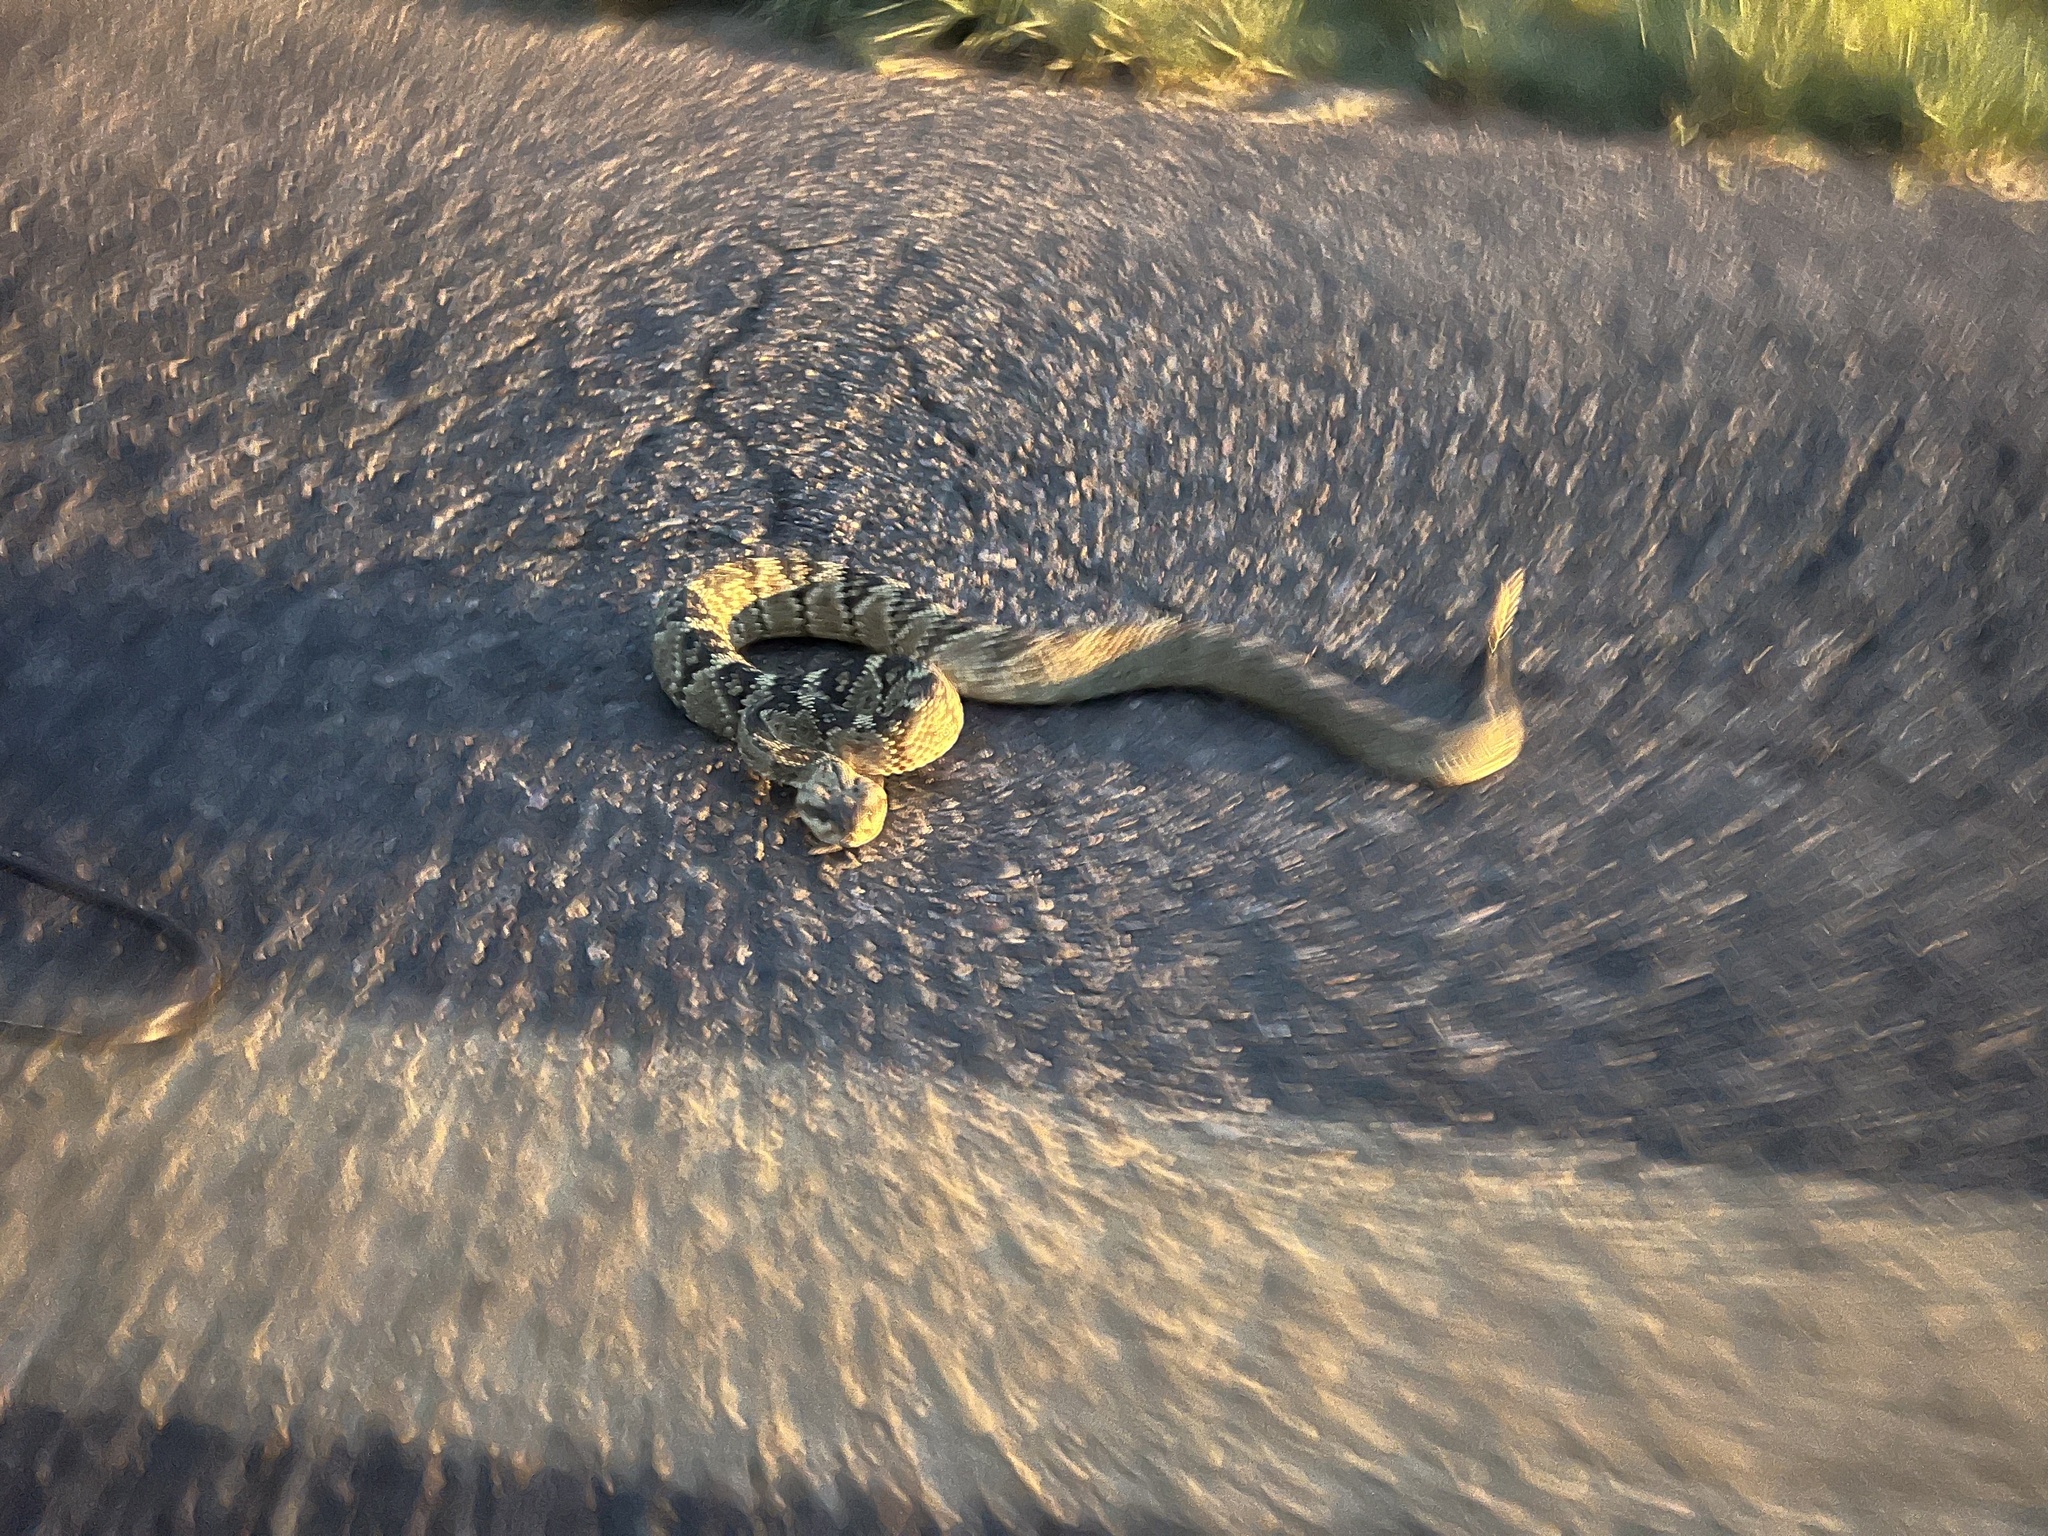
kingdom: Animalia
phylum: Chordata
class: Squamata
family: Viperidae
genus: Crotalus
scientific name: Crotalus molossus
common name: Black tailed rattlesnake
